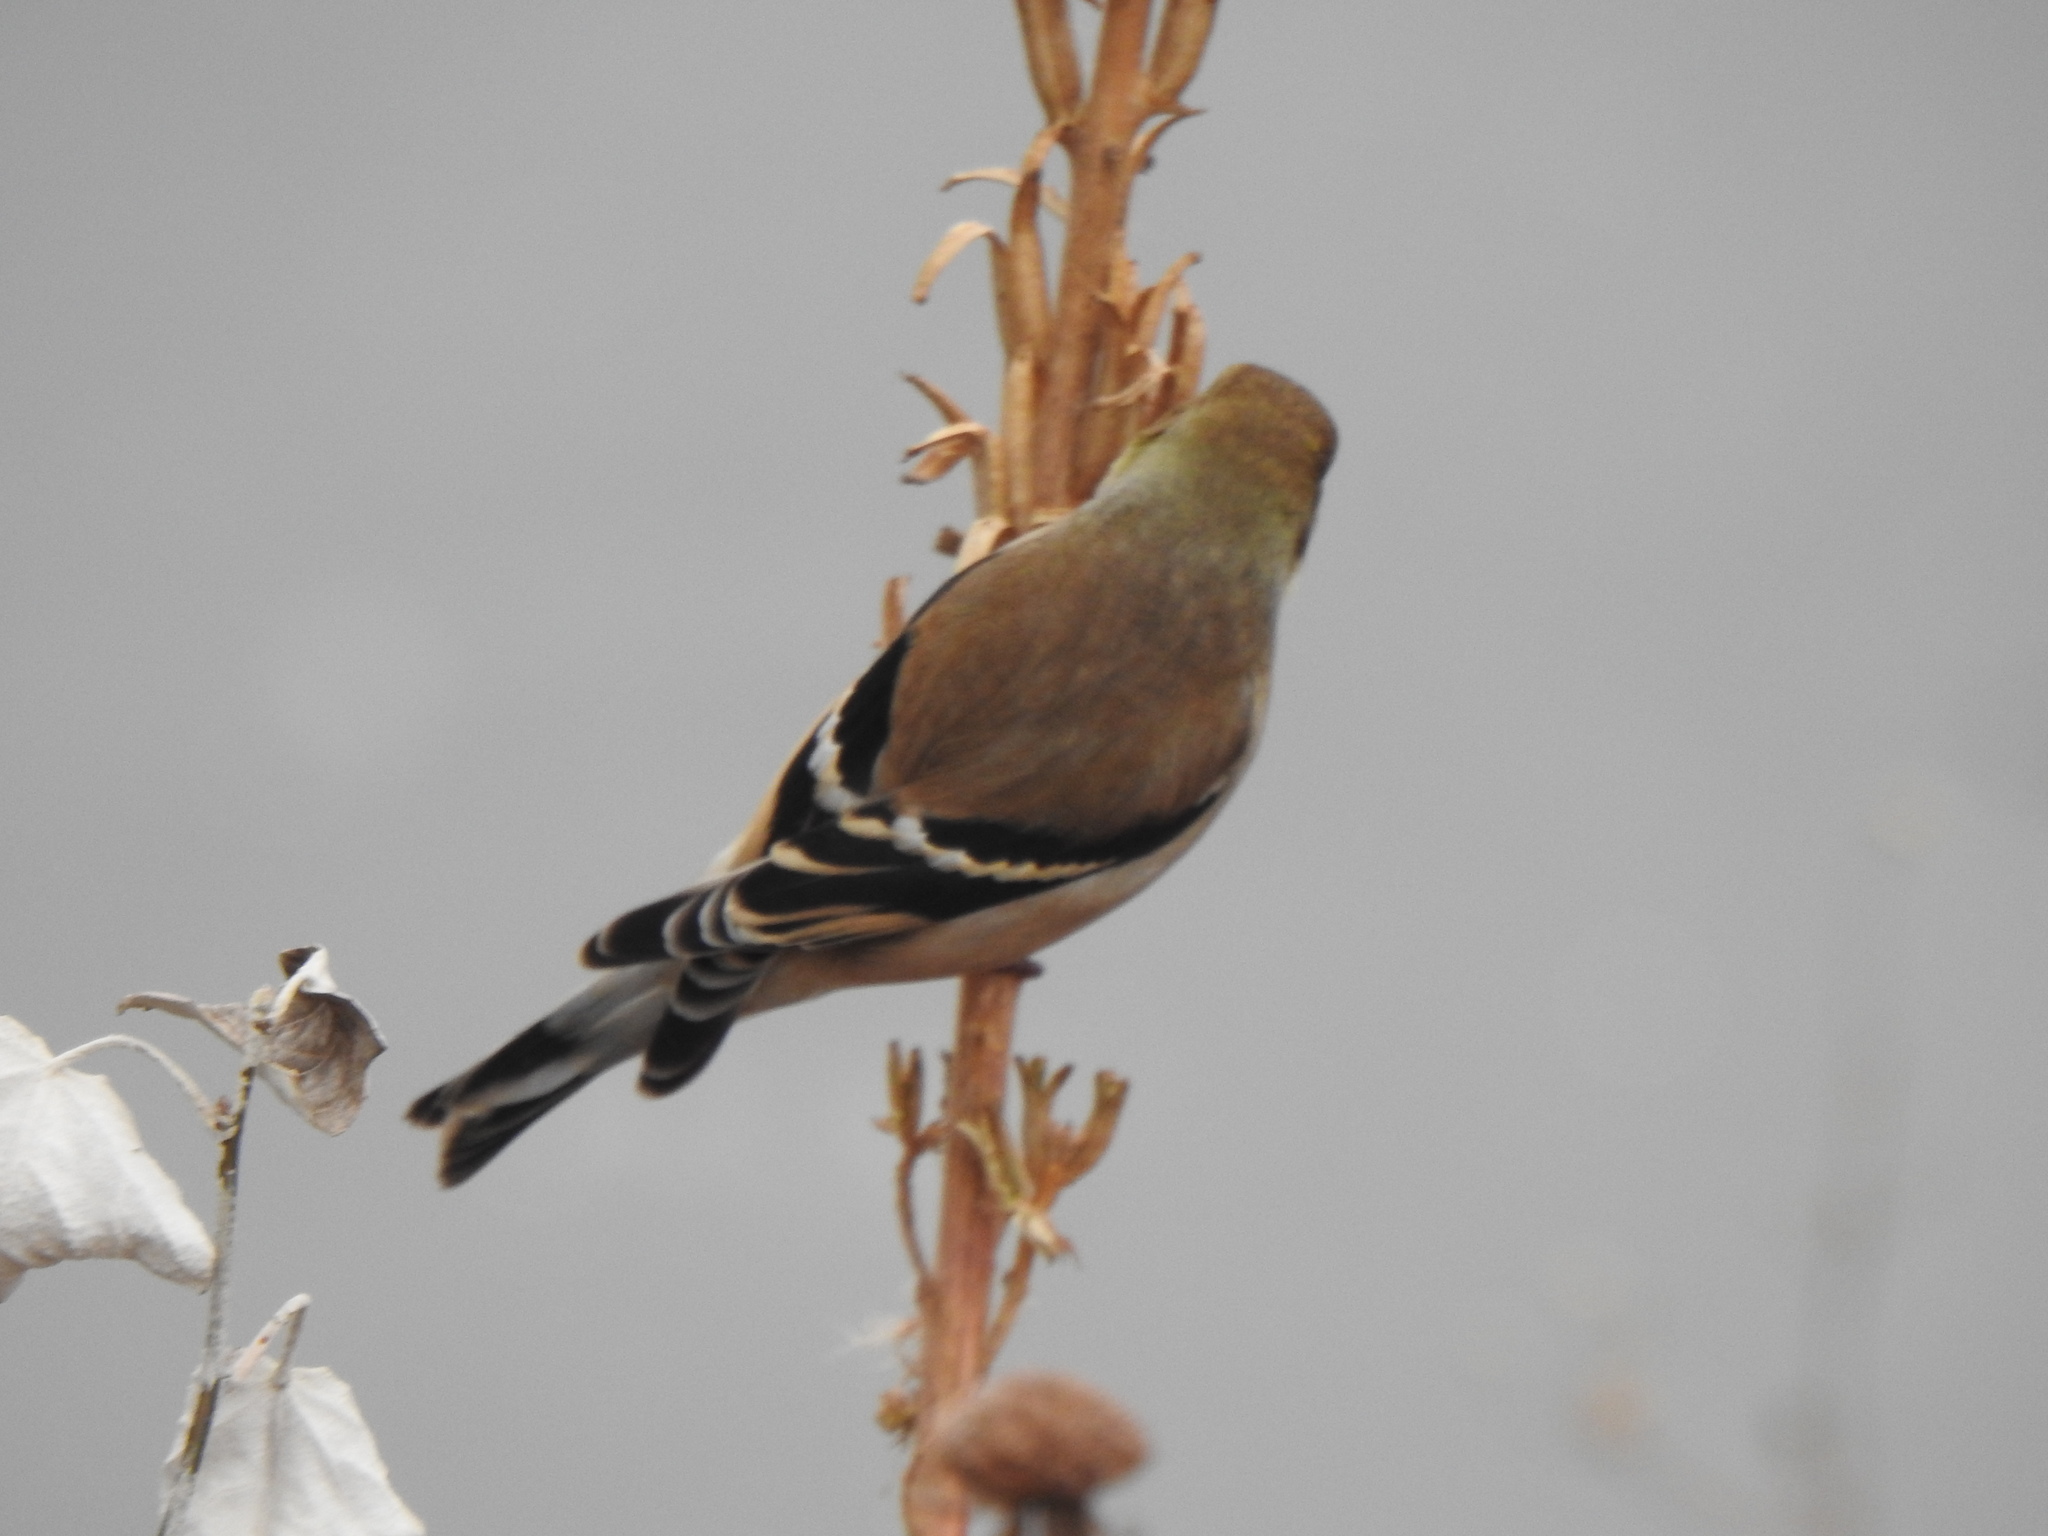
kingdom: Animalia
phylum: Chordata
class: Aves
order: Passeriformes
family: Fringillidae
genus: Spinus
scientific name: Spinus tristis
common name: American goldfinch
